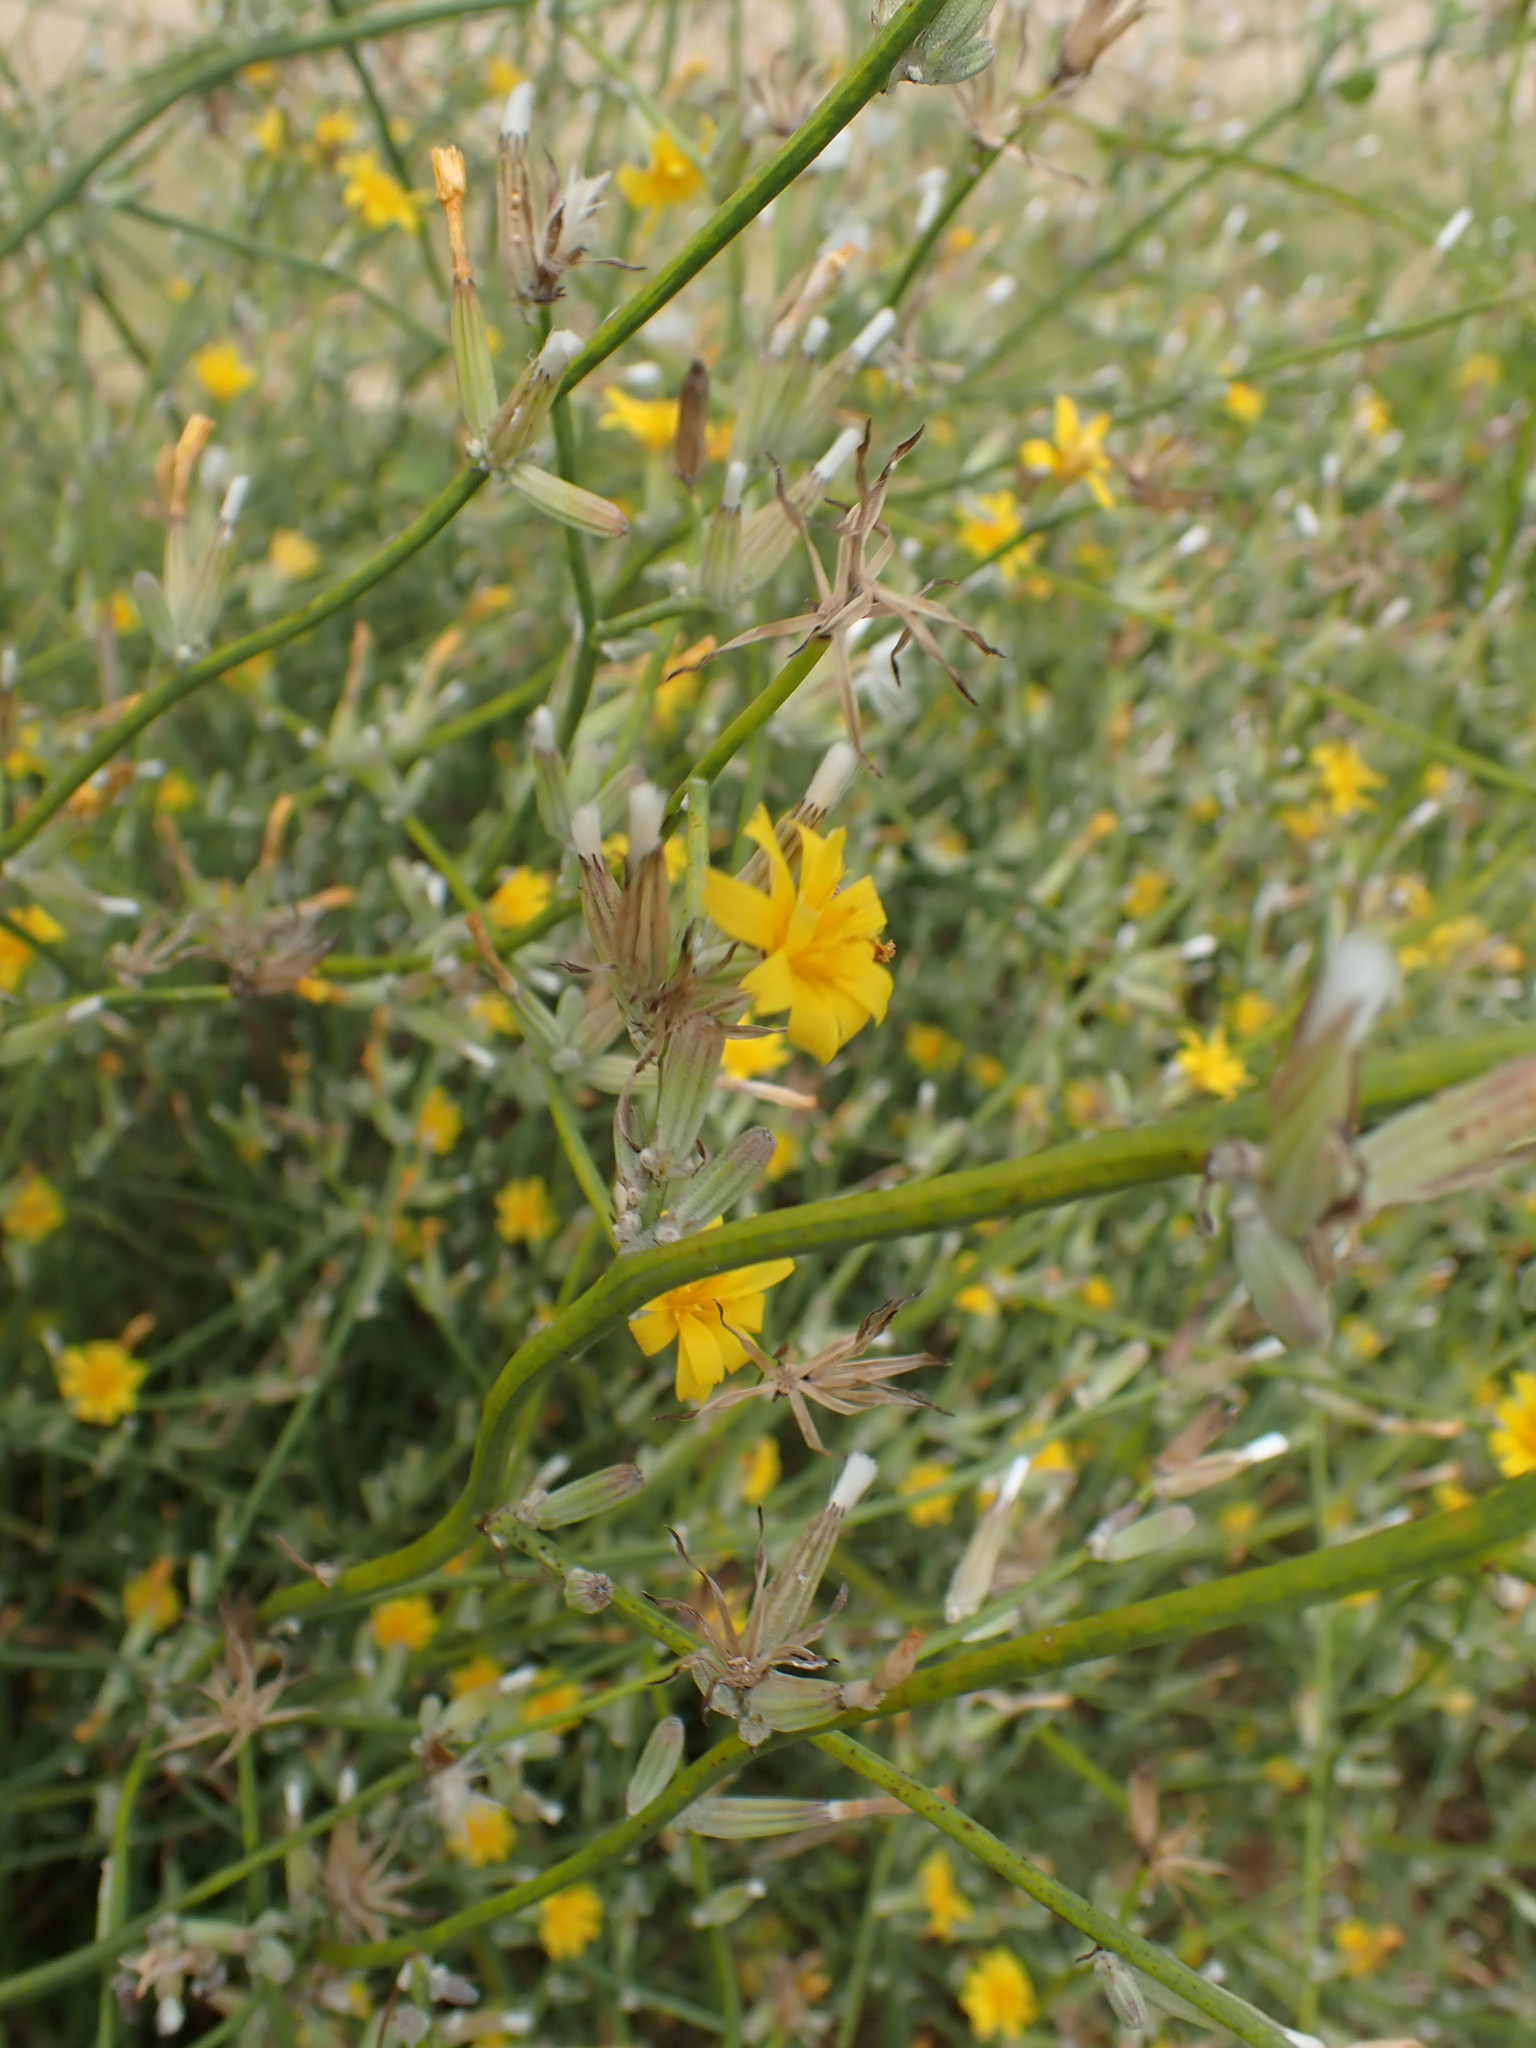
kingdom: Plantae
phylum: Tracheophyta
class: Magnoliopsida
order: Asterales
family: Asteraceae
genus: Chondrilla
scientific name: Chondrilla juncea
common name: Skeleton weed
